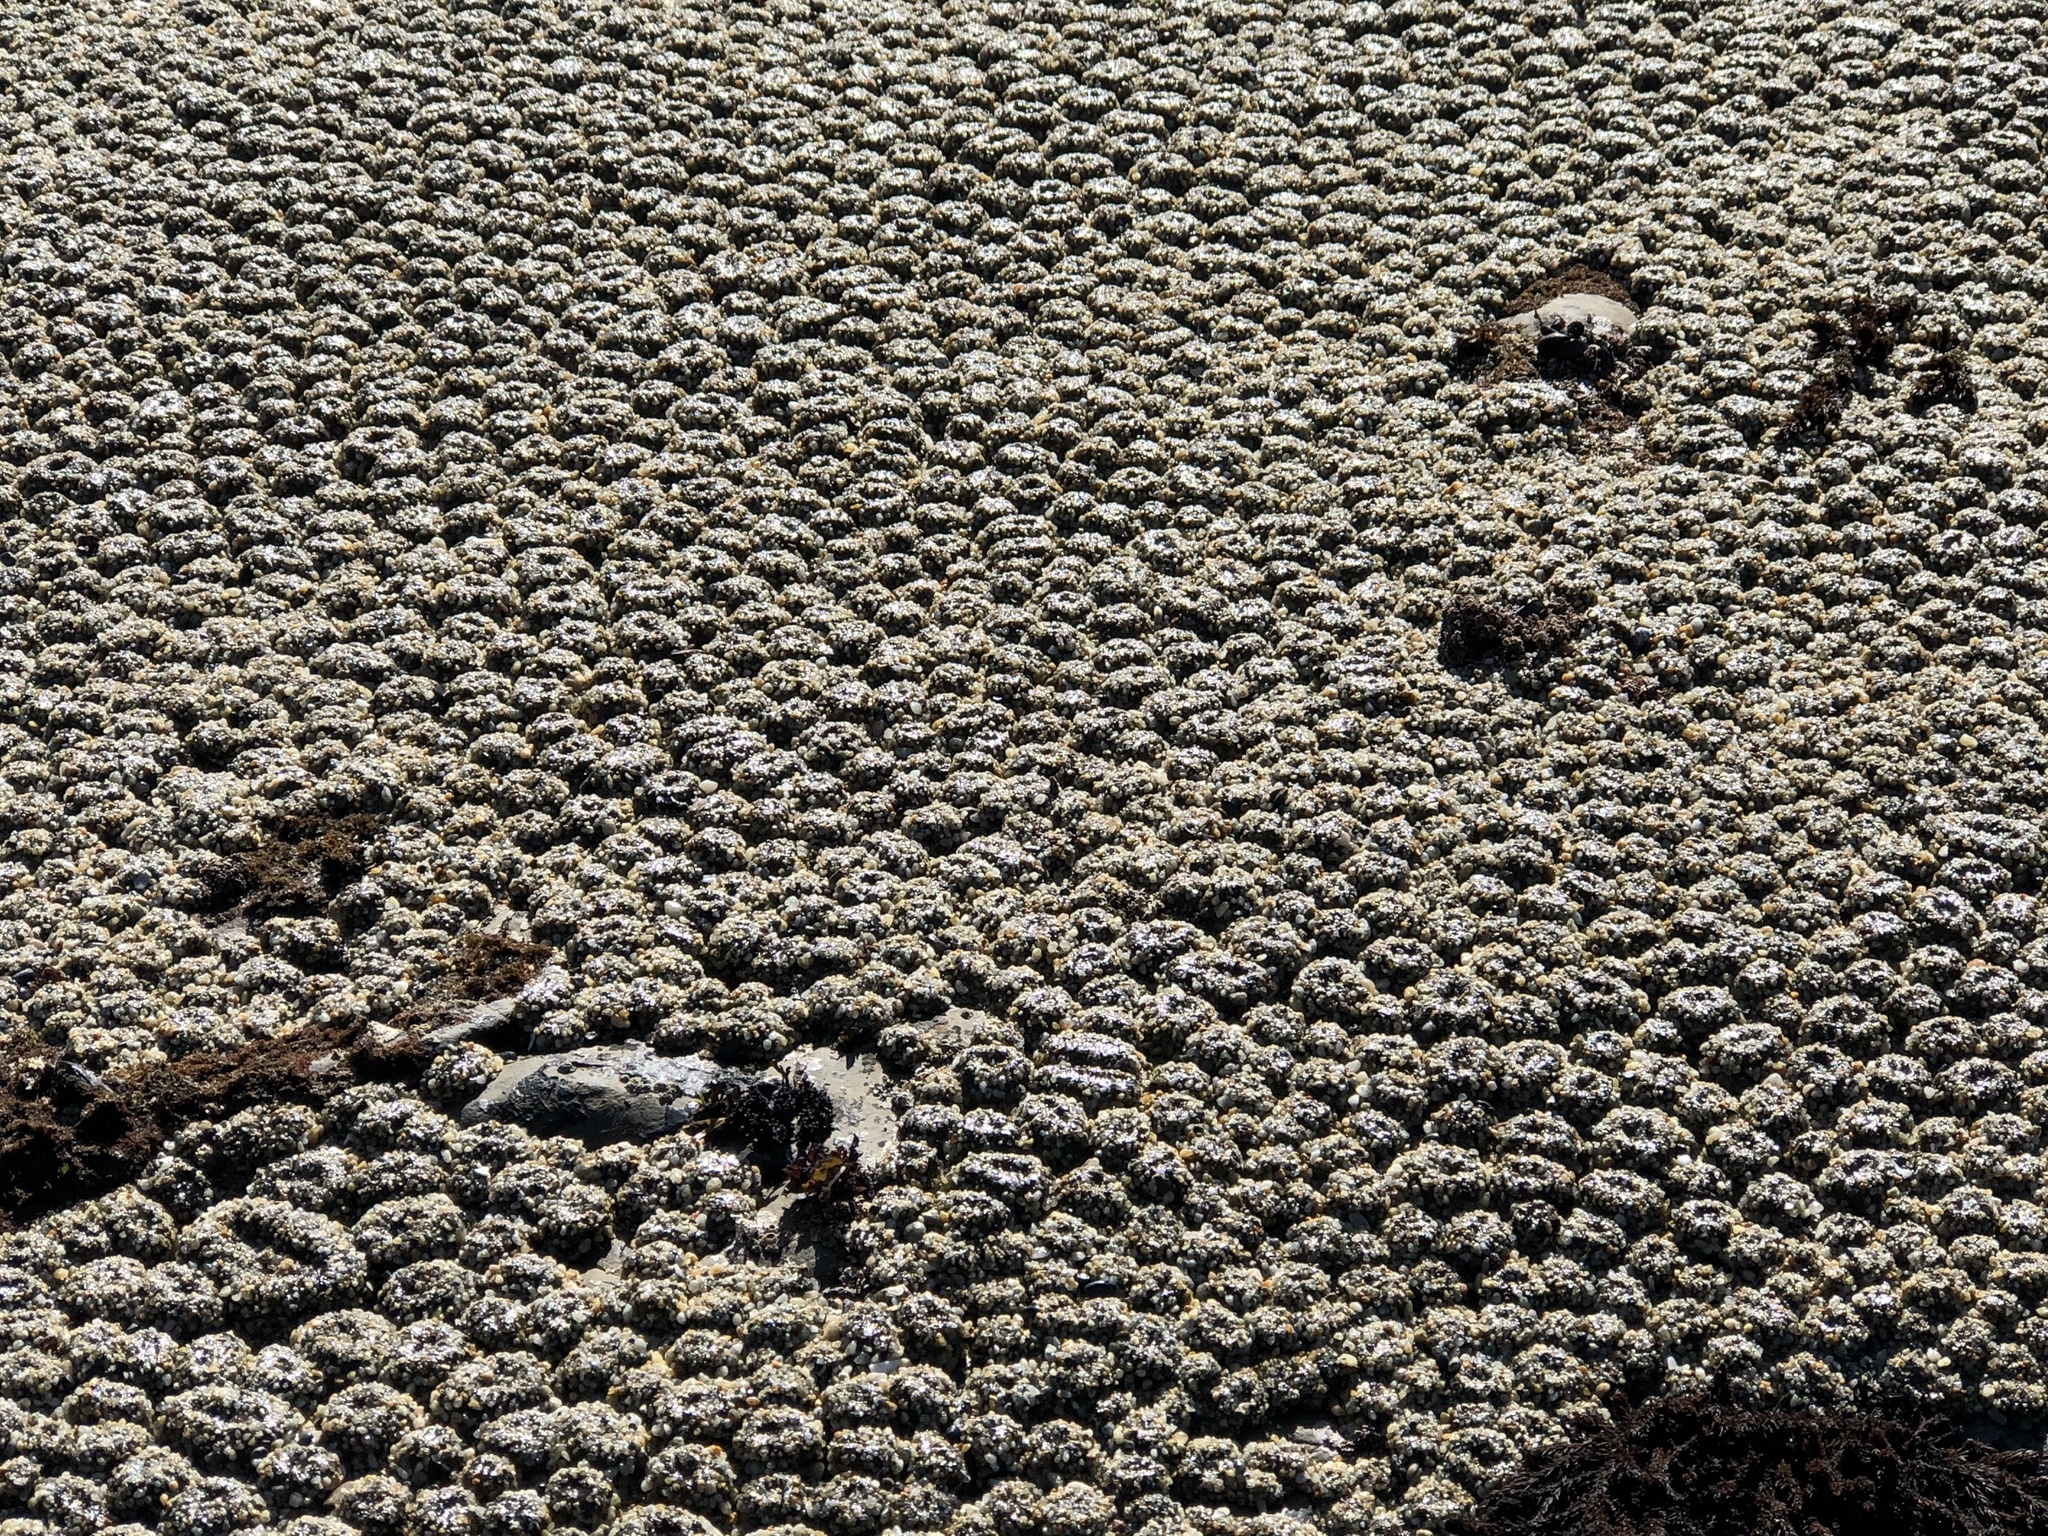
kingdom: Animalia
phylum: Cnidaria
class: Anthozoa
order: Actiniaria
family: Actiniidae
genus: Anthopleura
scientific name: Anthopleura elegantissima
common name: Clonal anemone
